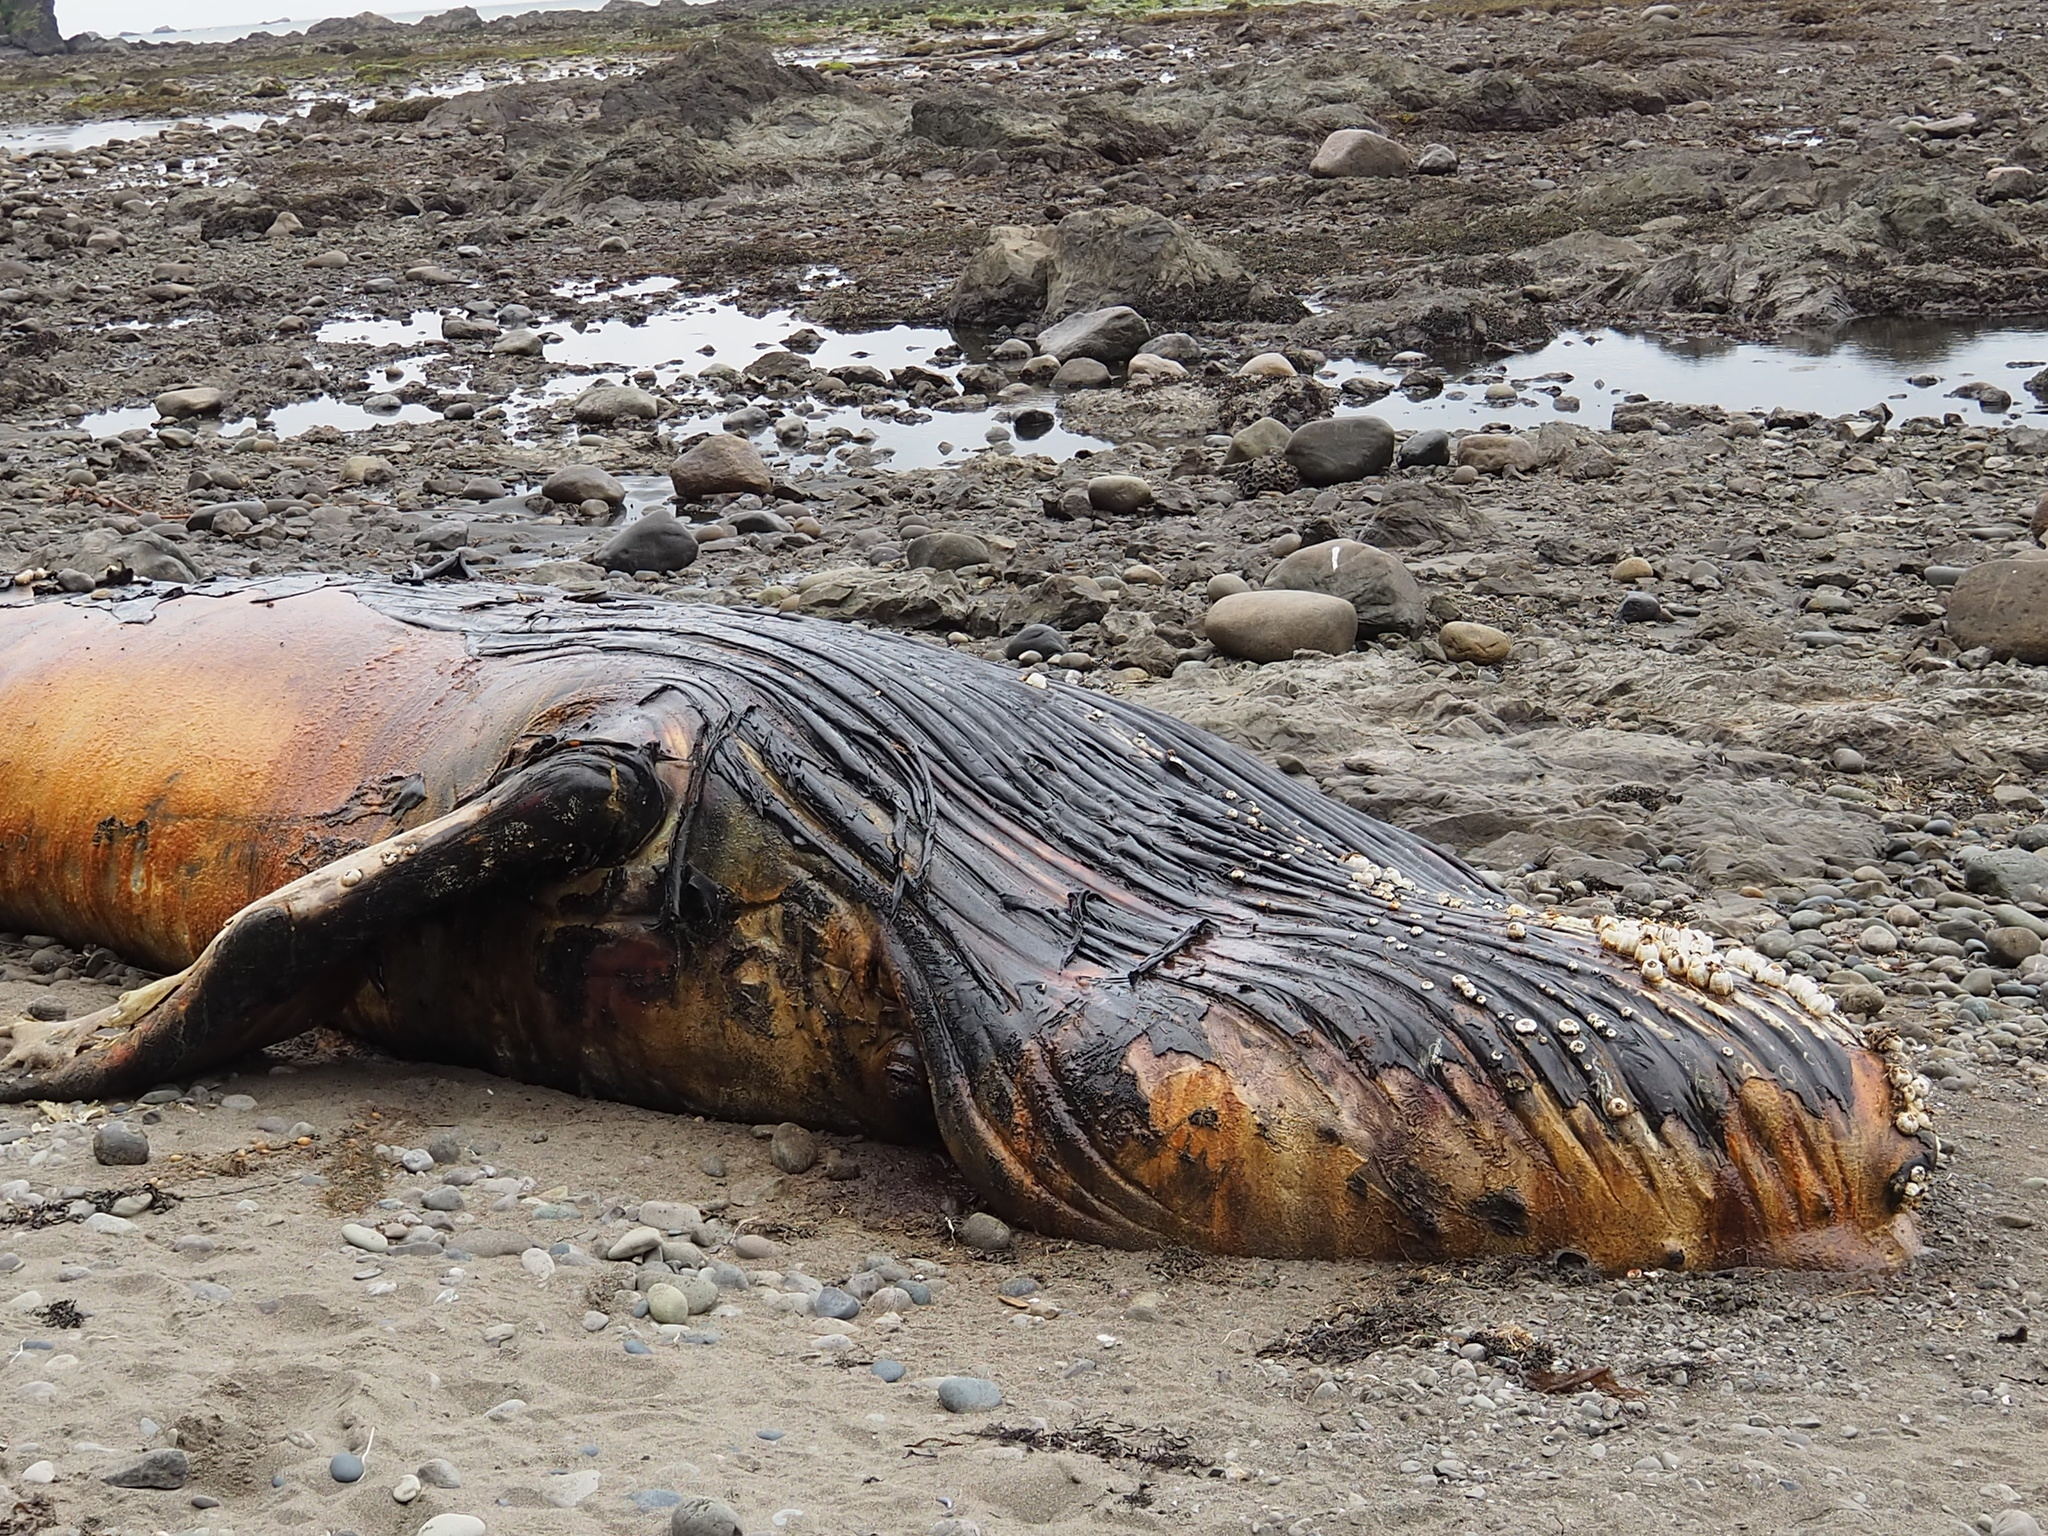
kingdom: Animalia
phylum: Chordata
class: Mammalia
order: Cetacea
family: Balaenopteridae
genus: Megaptera
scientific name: Megaptera novaeangliae
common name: Humpback whale
